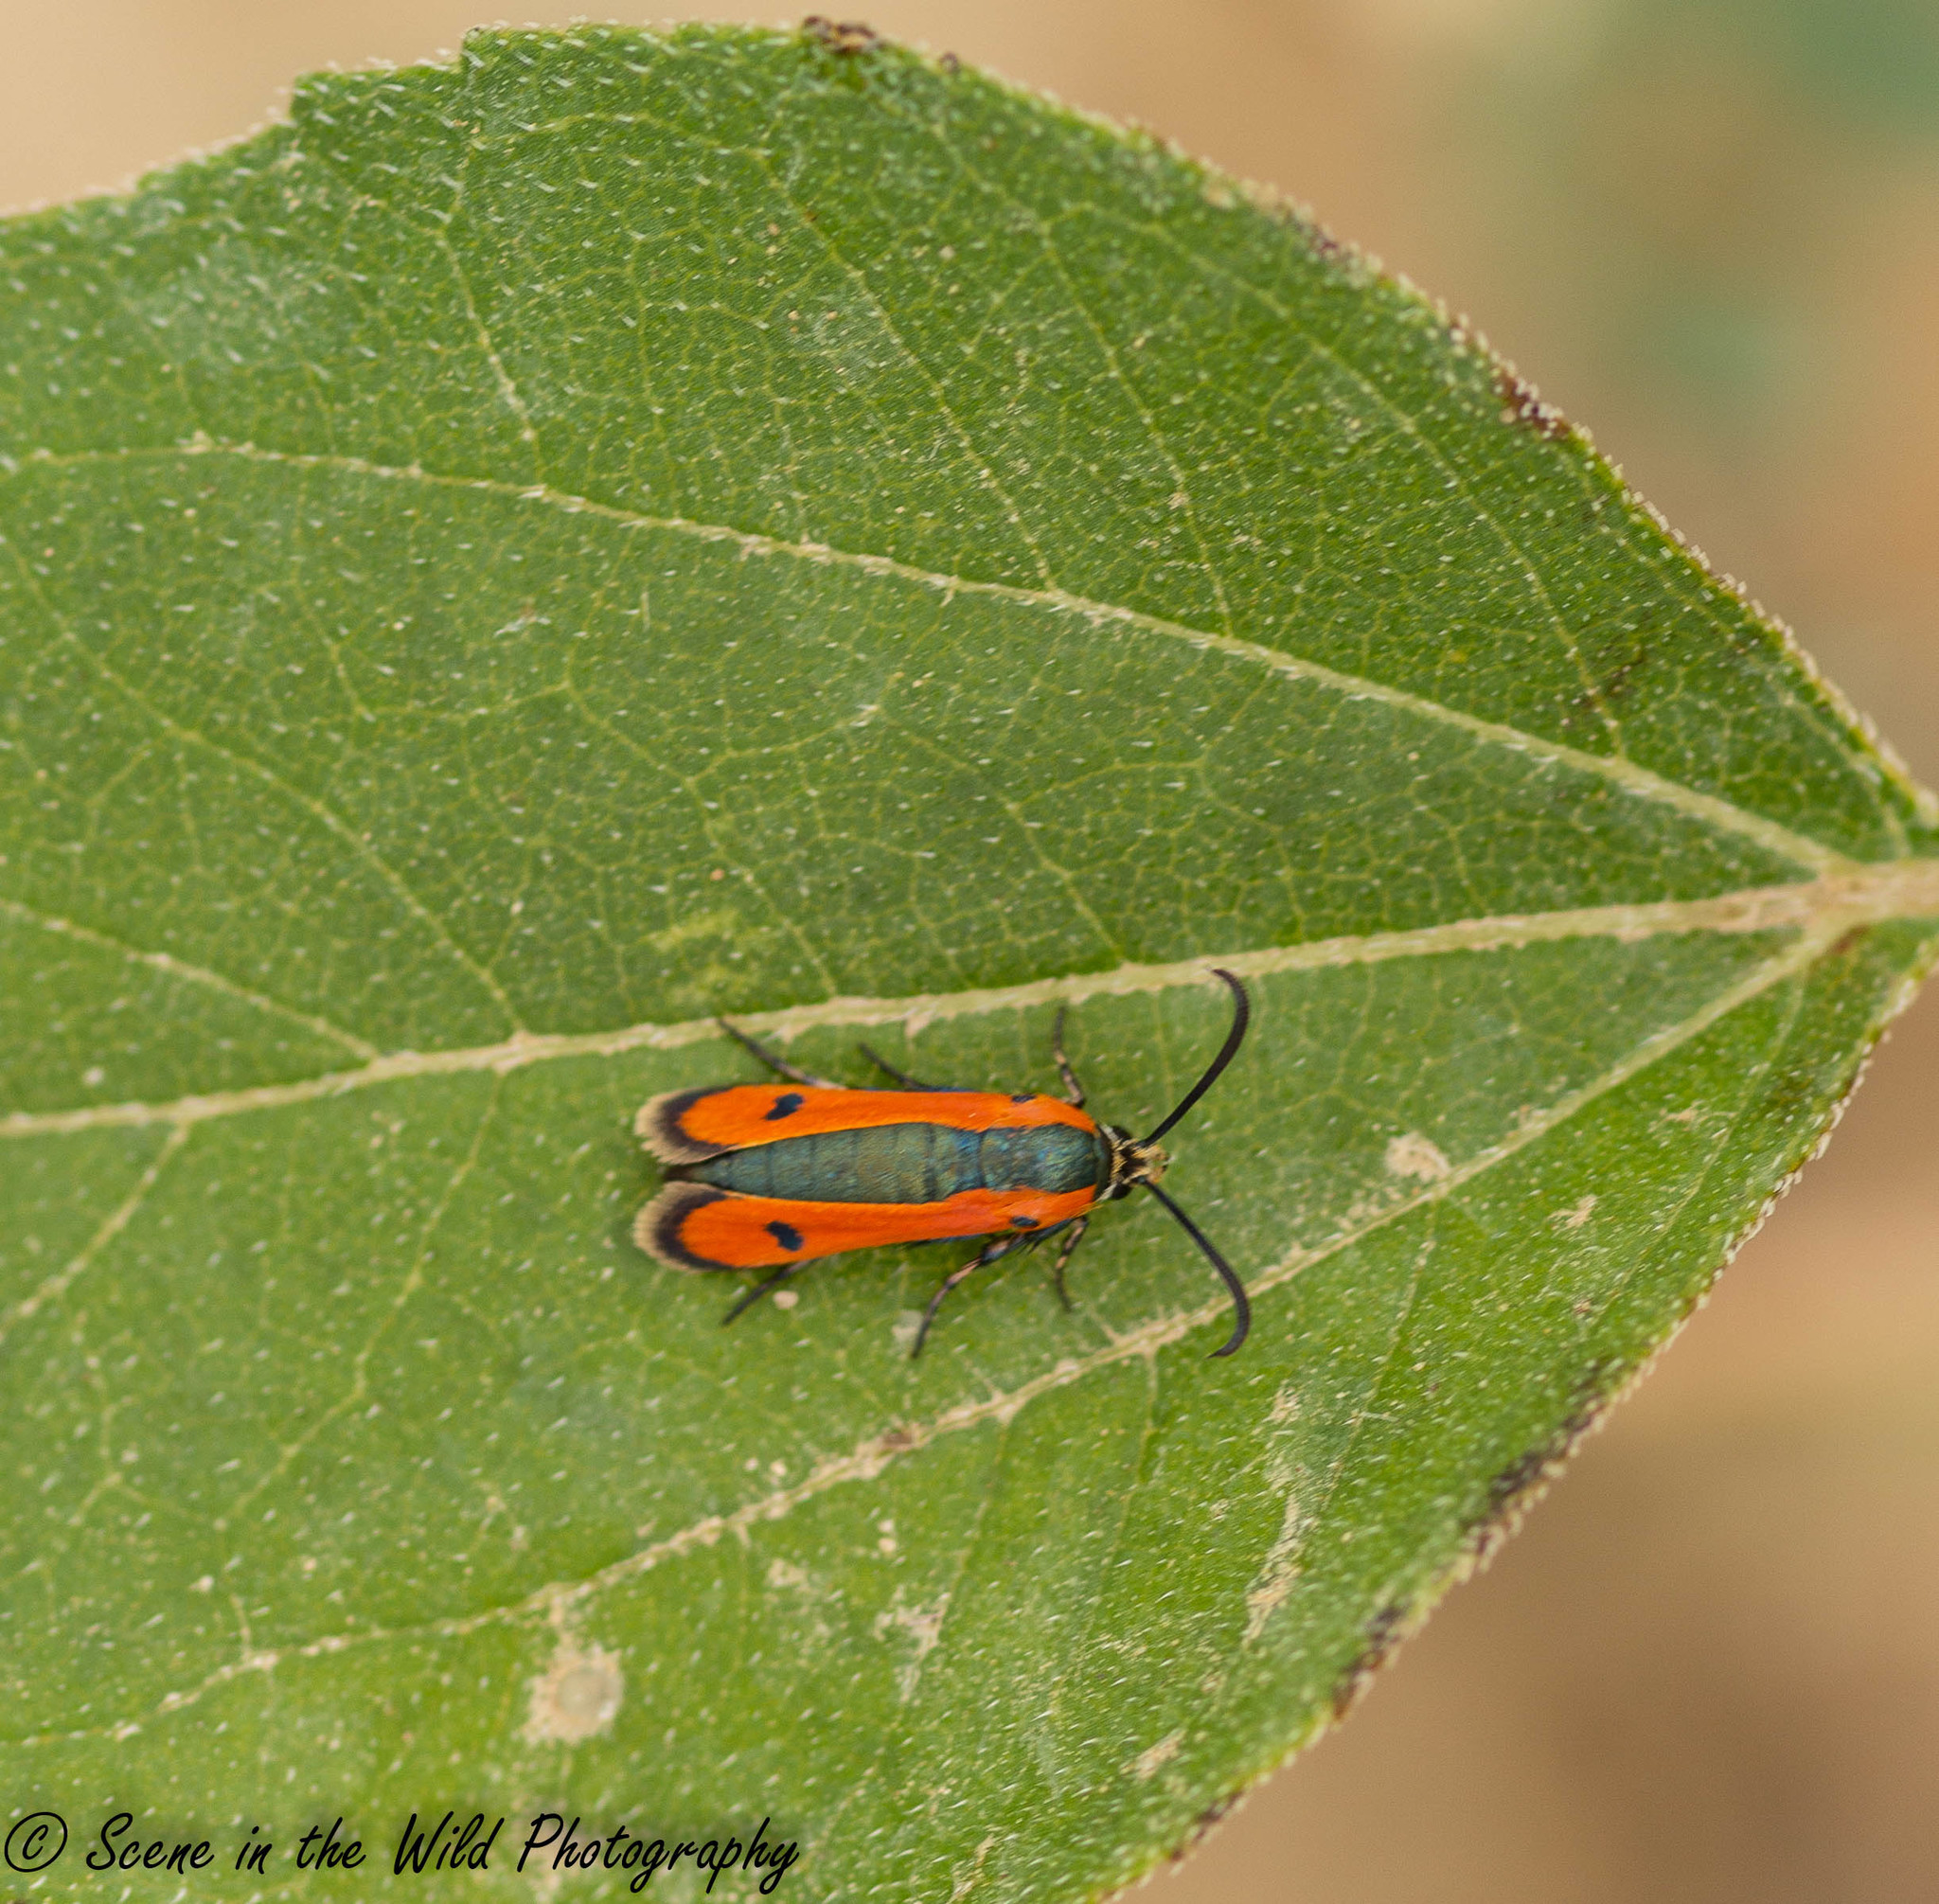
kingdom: Animalia
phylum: Arthropoda
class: Insecta
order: Lepidoptera
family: Sesiidae
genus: Calasesia
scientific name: Calasesia coccinea
